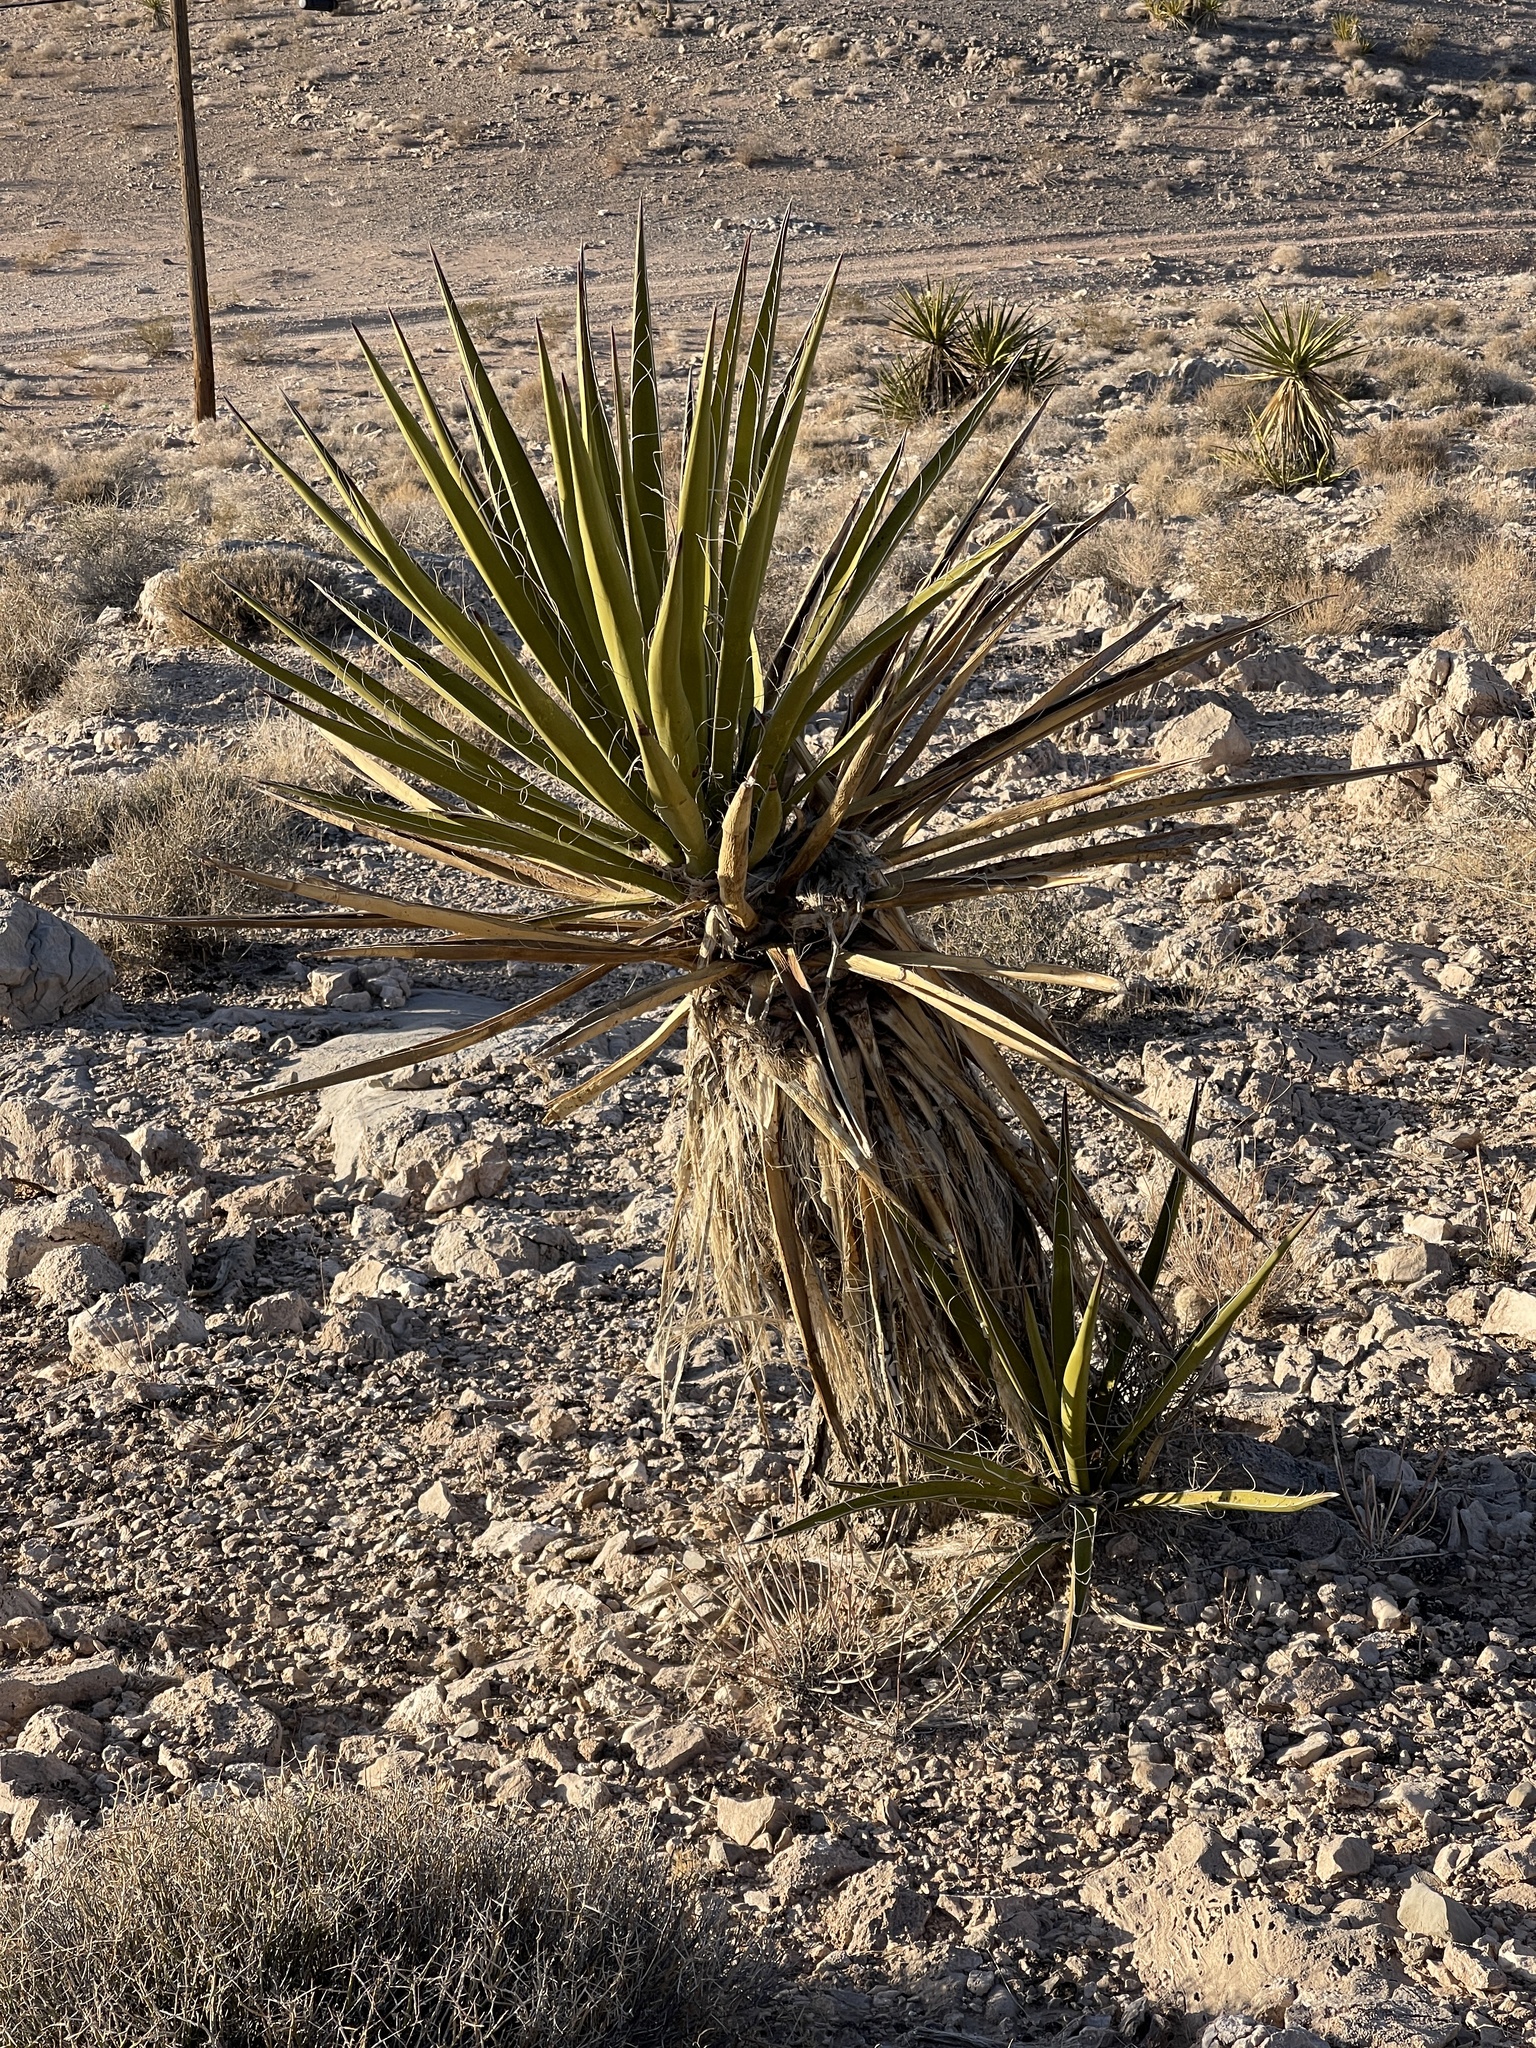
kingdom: Plantae
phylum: Tracheophyta
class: Liliopsida
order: Asparagales
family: Asparagaceae
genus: Yucca
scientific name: Yucca schidigera
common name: Mojave yucca
